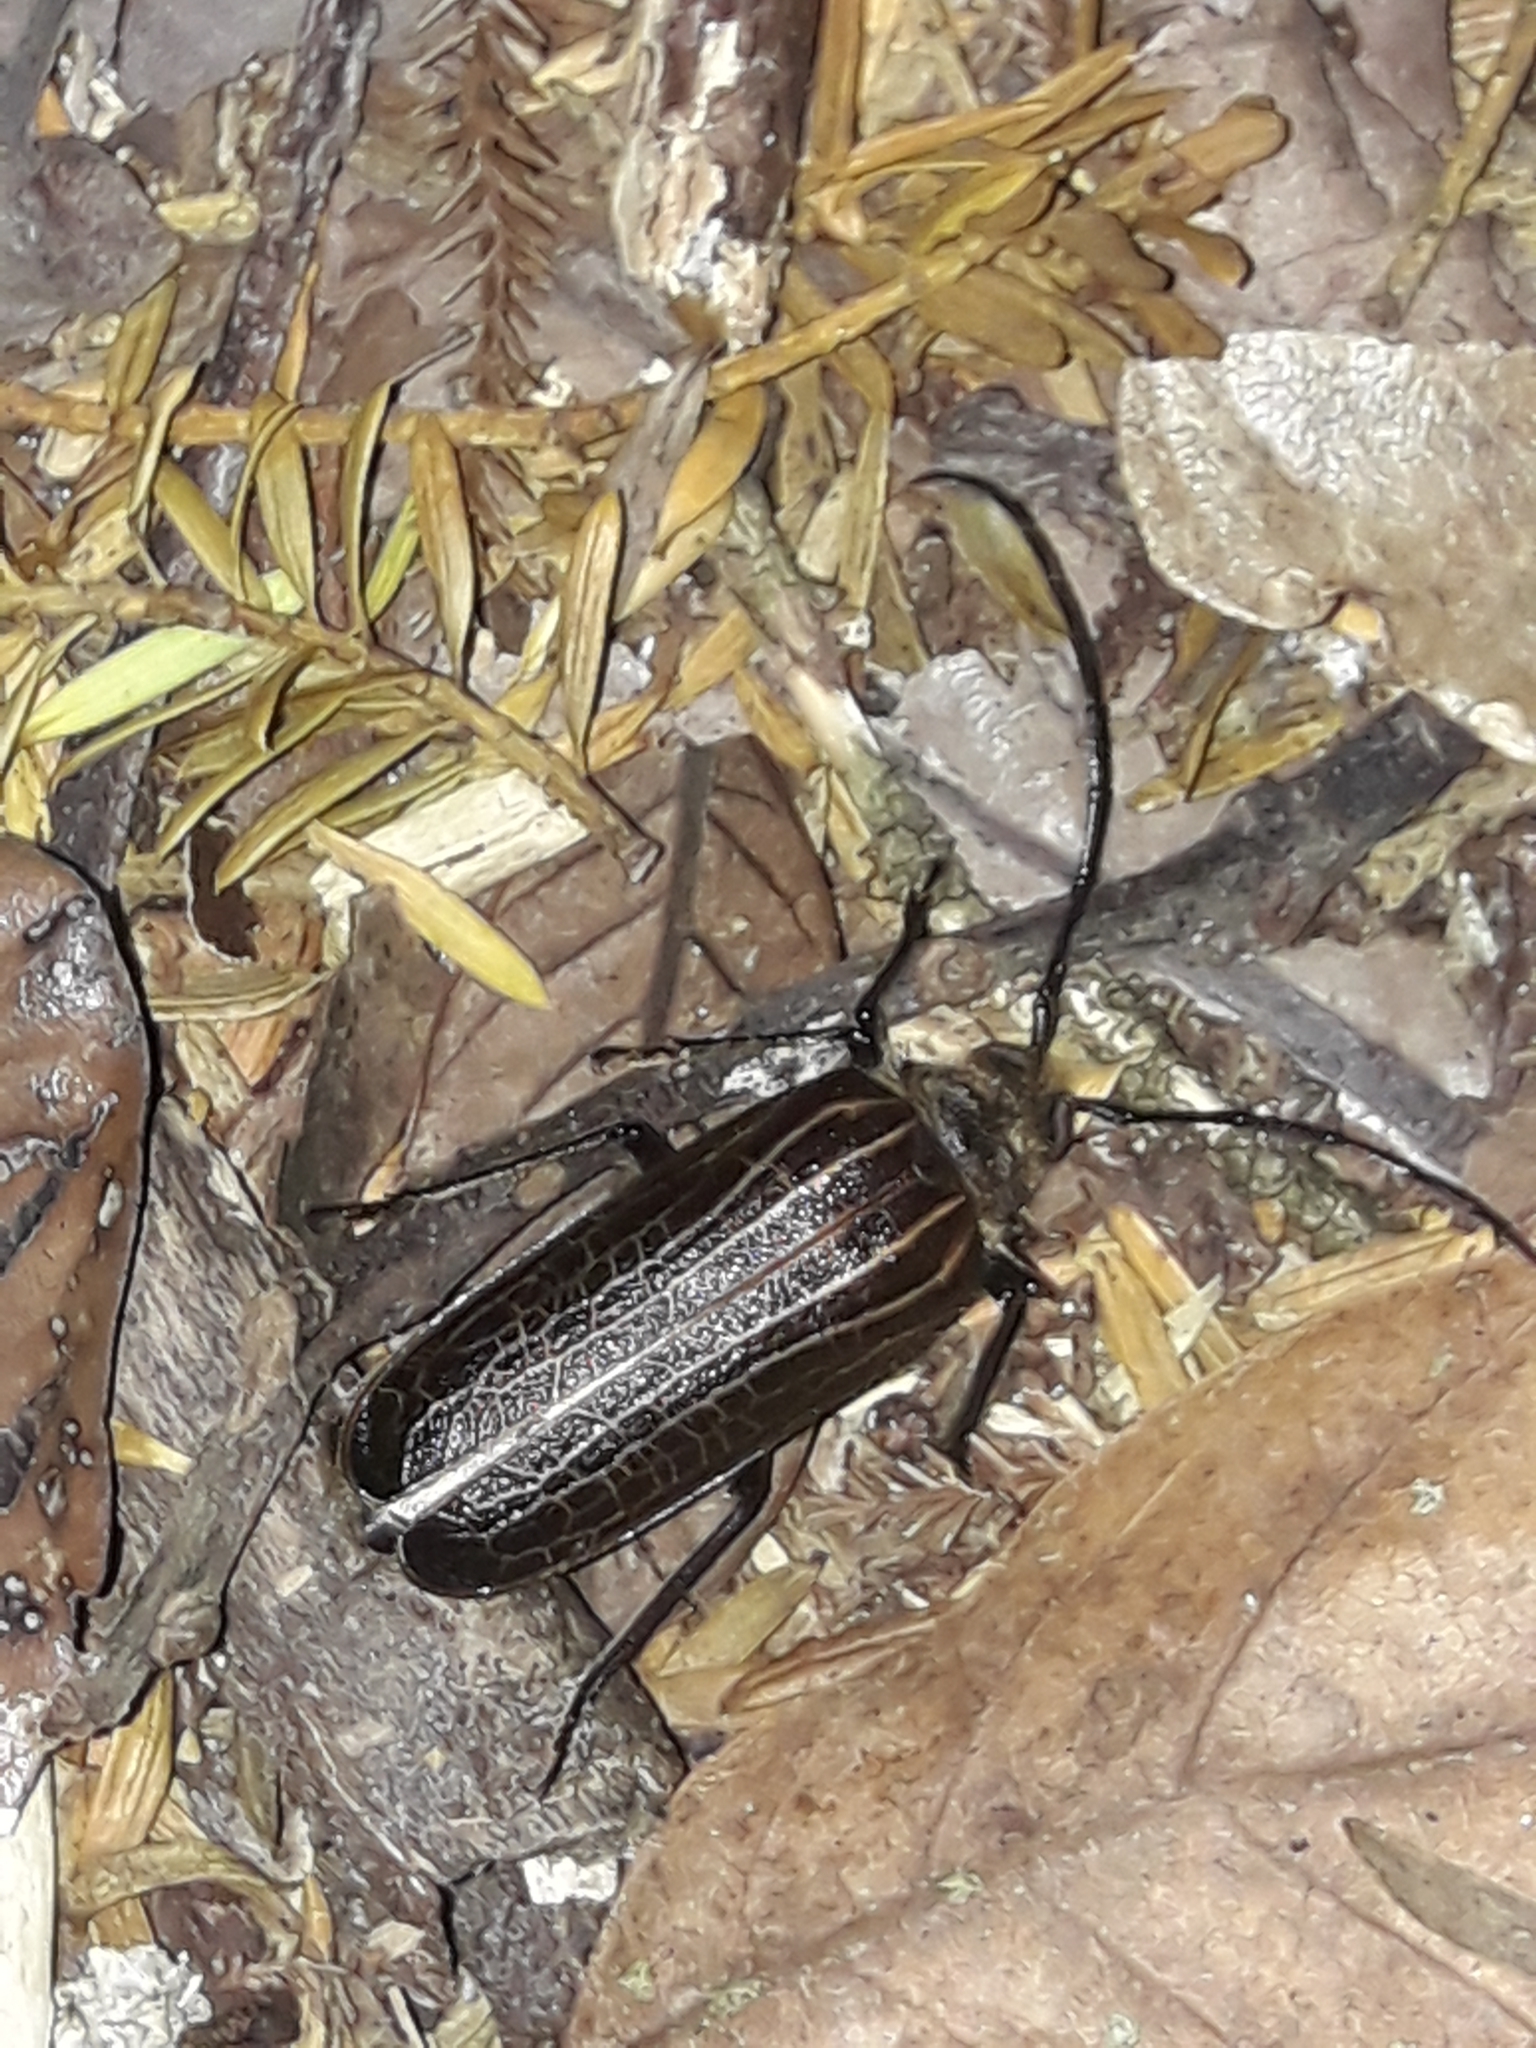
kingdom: Animalia
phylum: Arthropoda
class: Insecta
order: Coleoptera
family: Cerambycidae
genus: Prionoplus
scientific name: Prionoplus reticularis
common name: Huhu beetle
